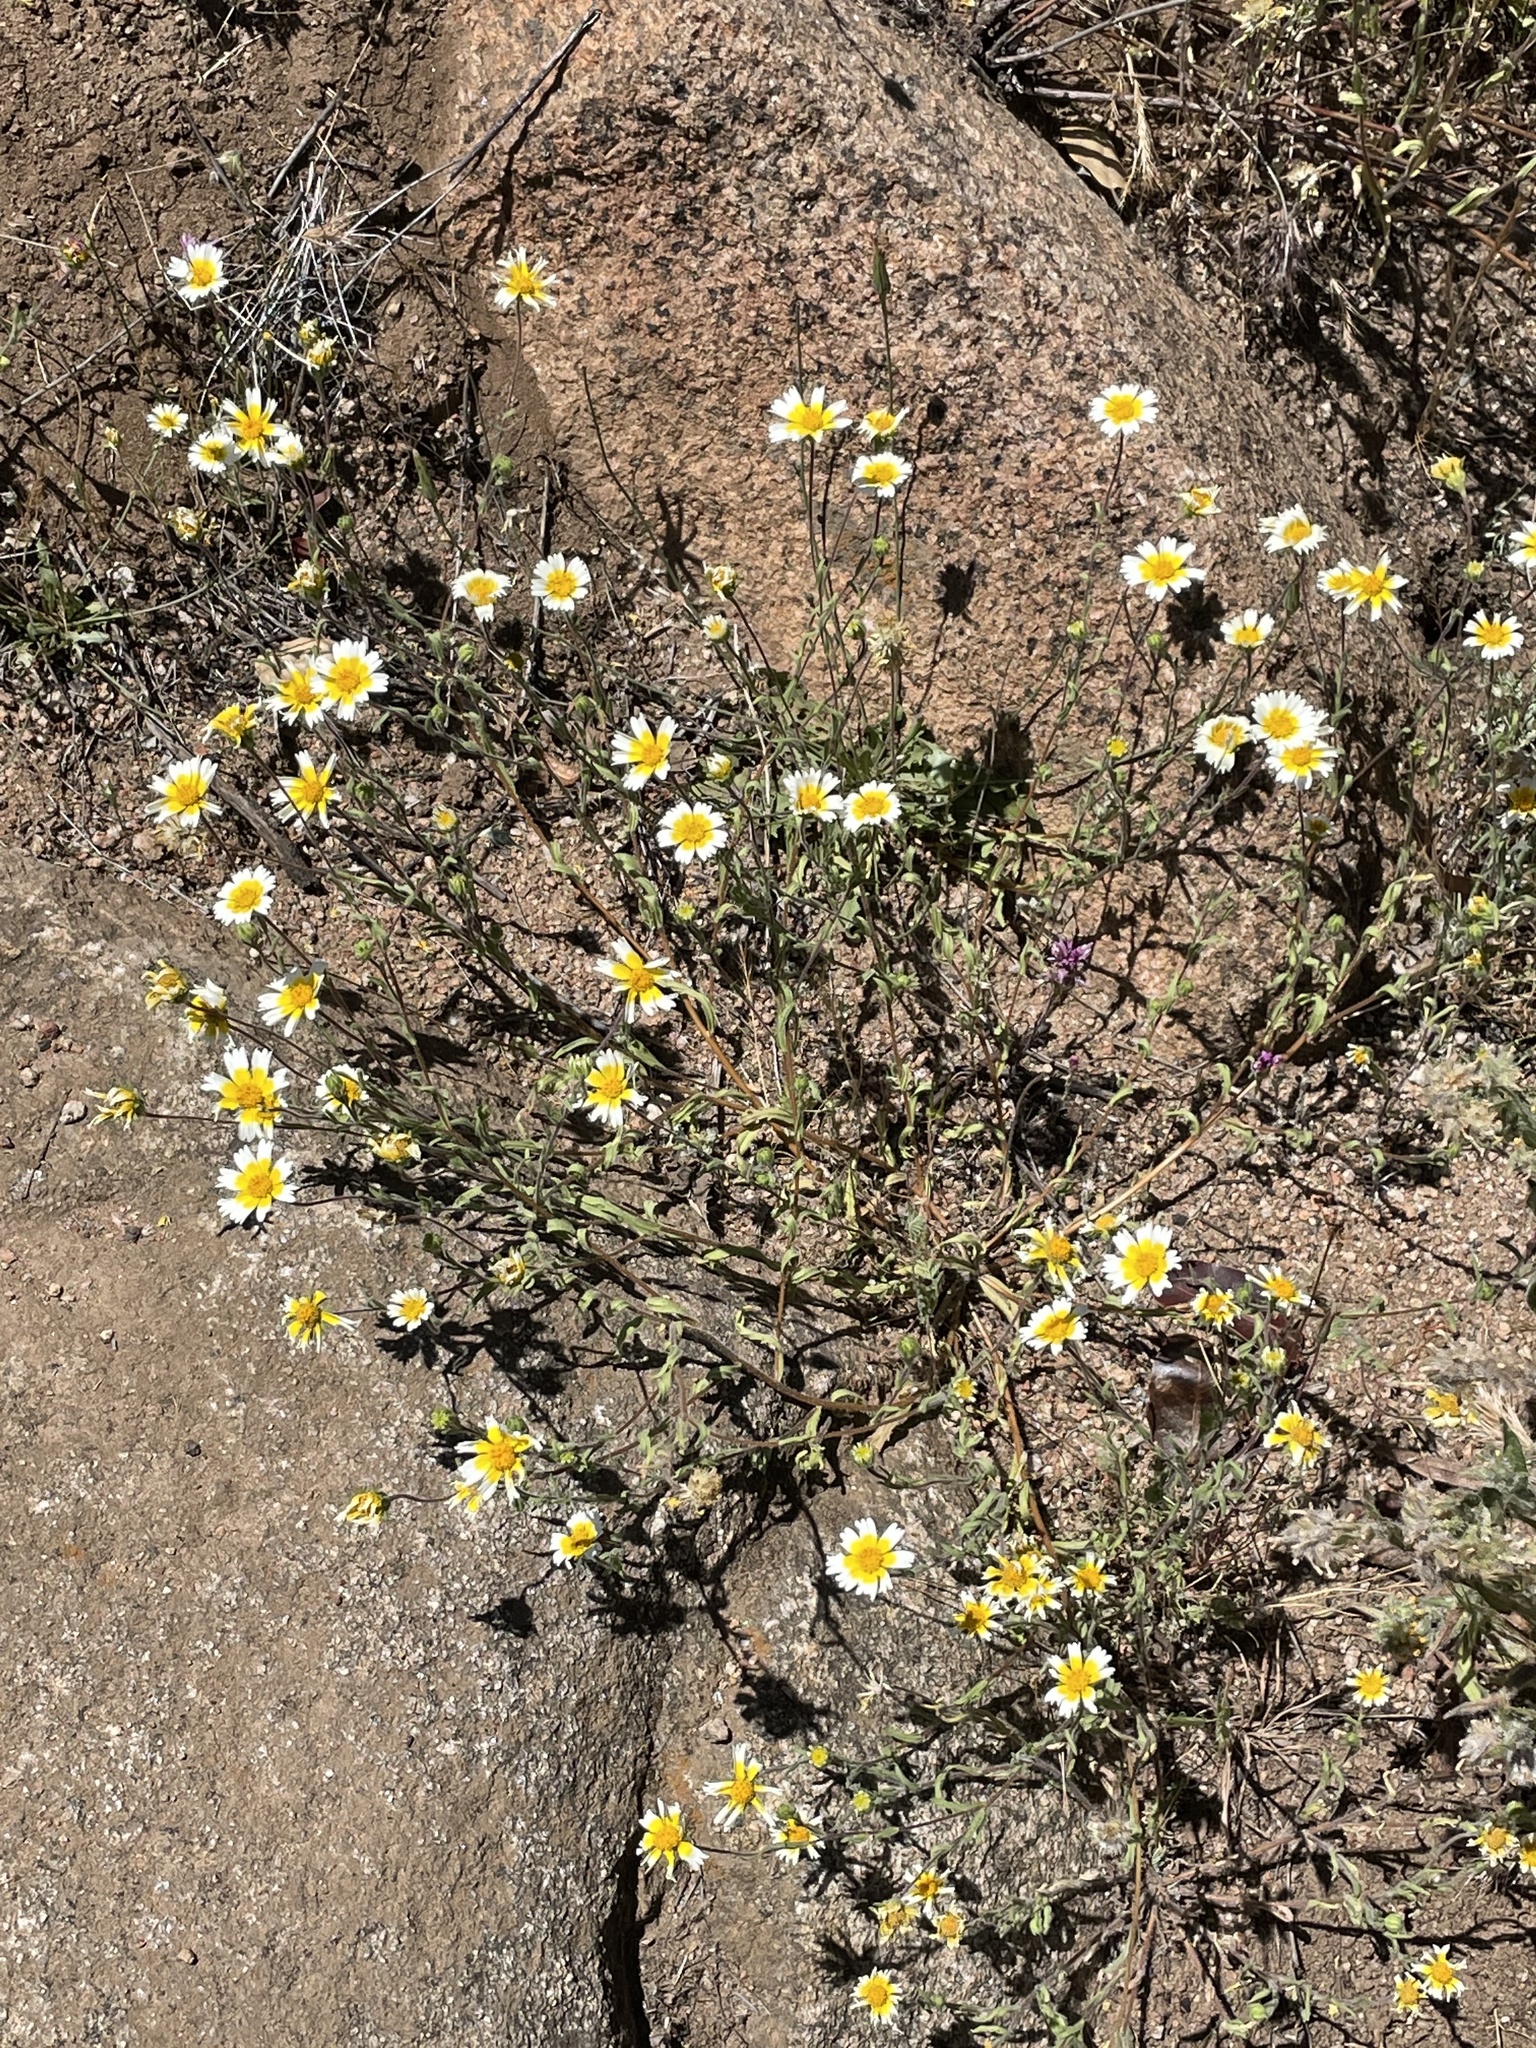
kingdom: Plantae
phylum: Tracheophyta
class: Magnoliopsida
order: Asterales
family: Asteraceae
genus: Layia
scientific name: Layia platyglossa
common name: Tidy-tips
